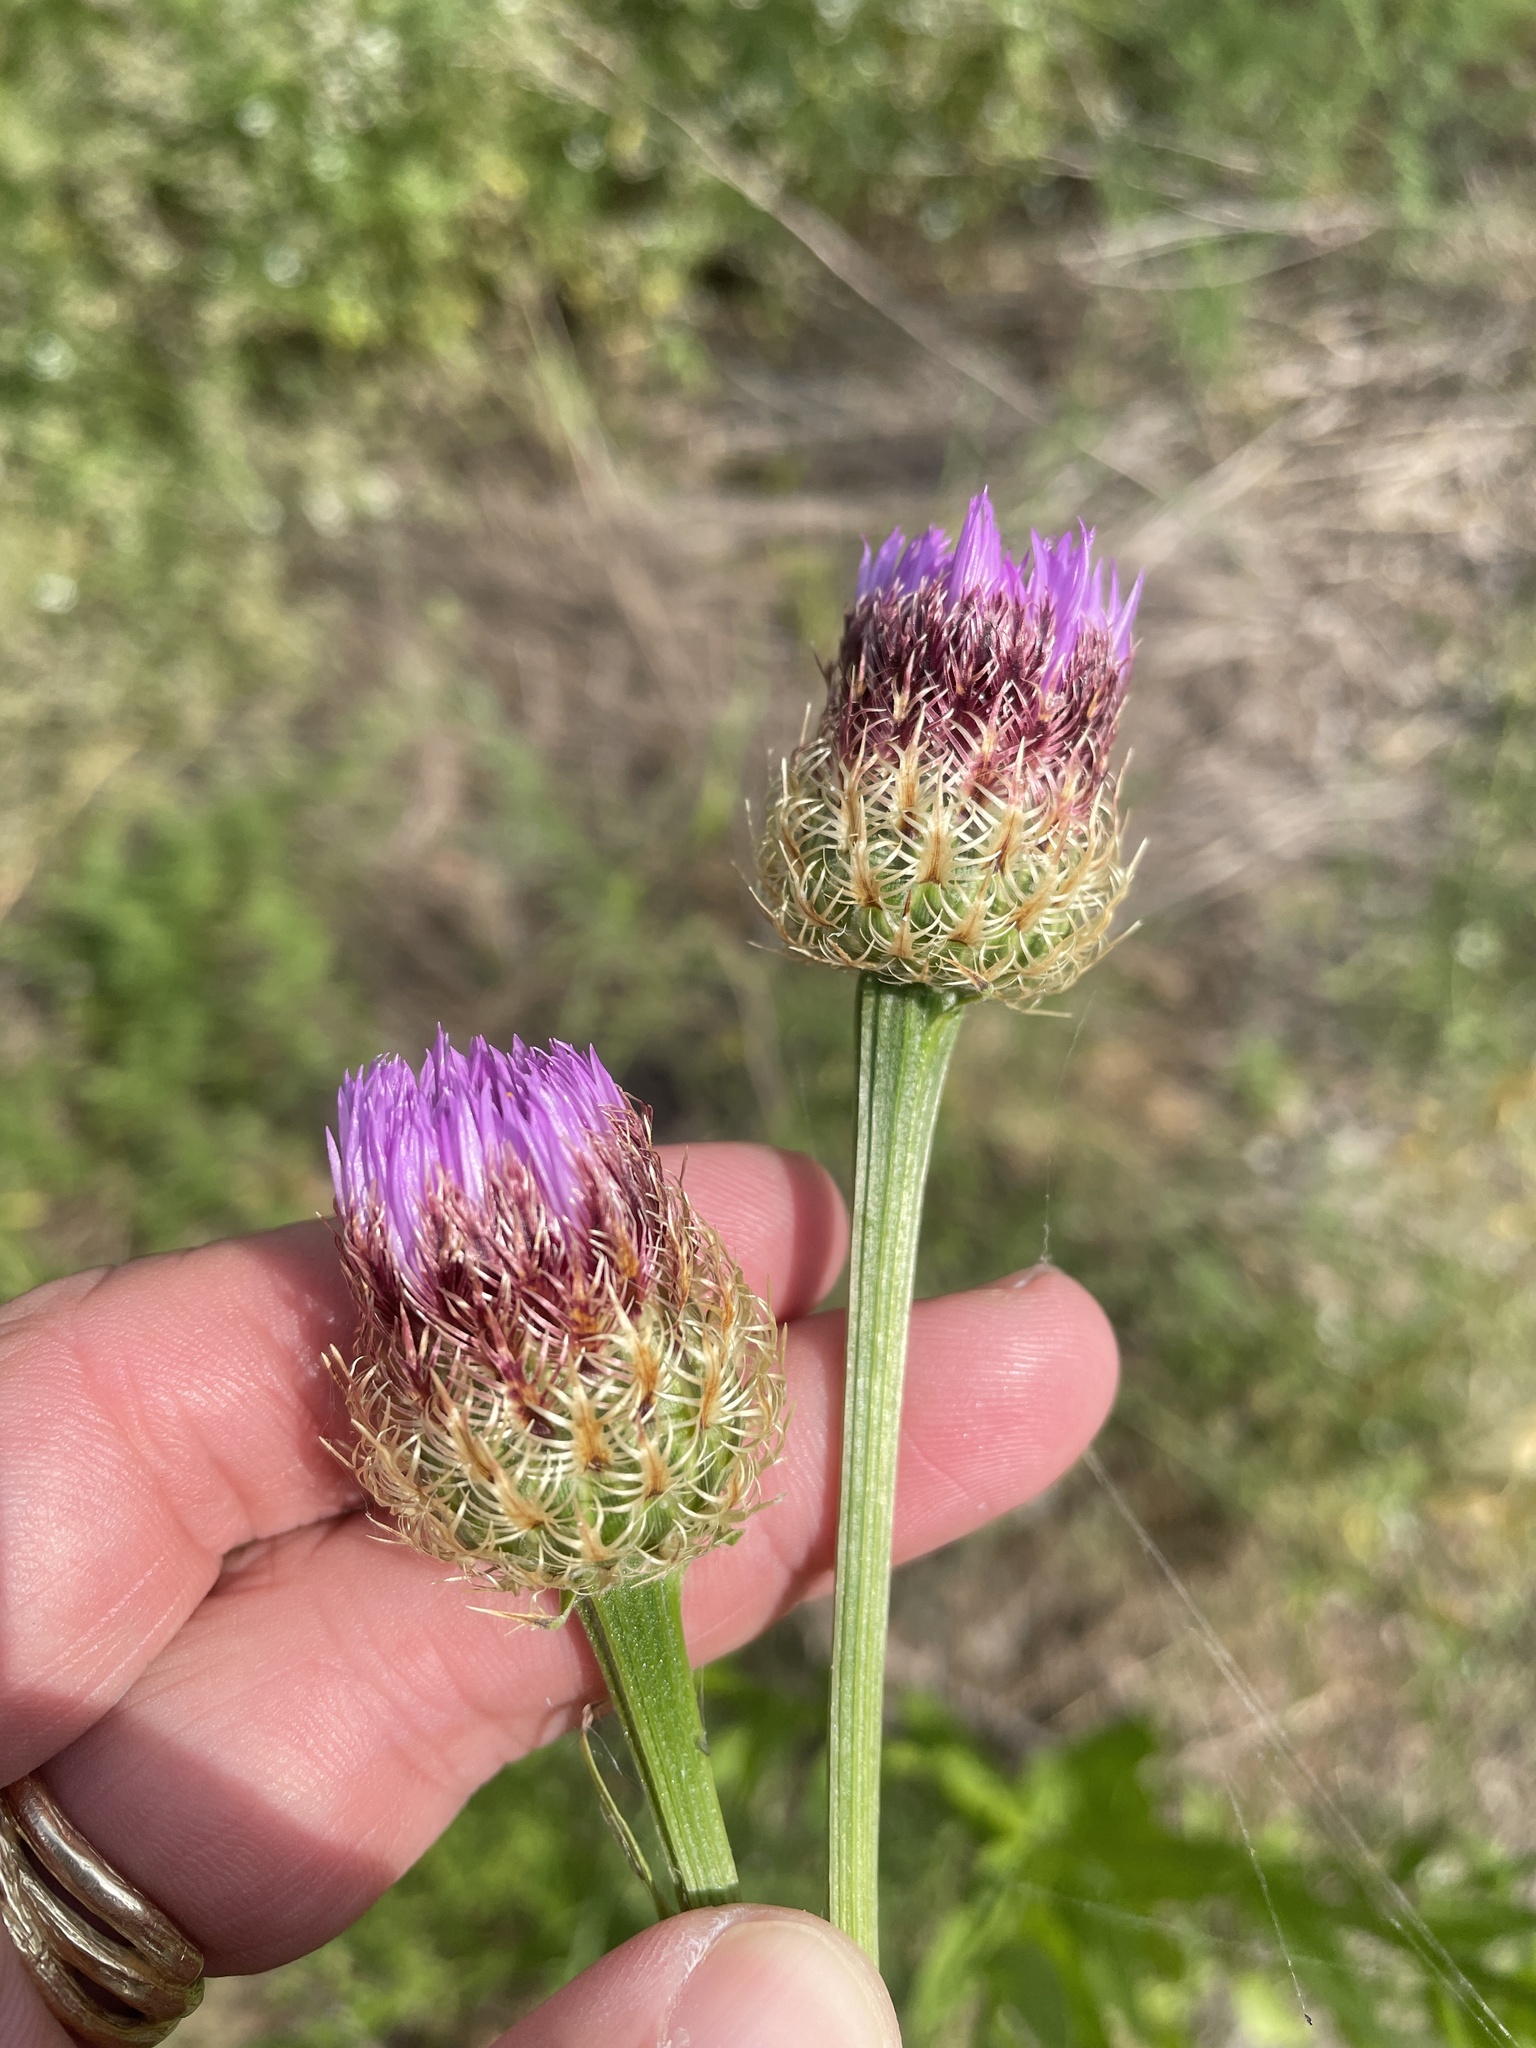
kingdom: Plantae
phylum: Tracheophyta
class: Magnoliopsida
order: Asterales
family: Asteraceae
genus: Plectocephalus
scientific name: Plectocephalus americanus
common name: American basket-flower
